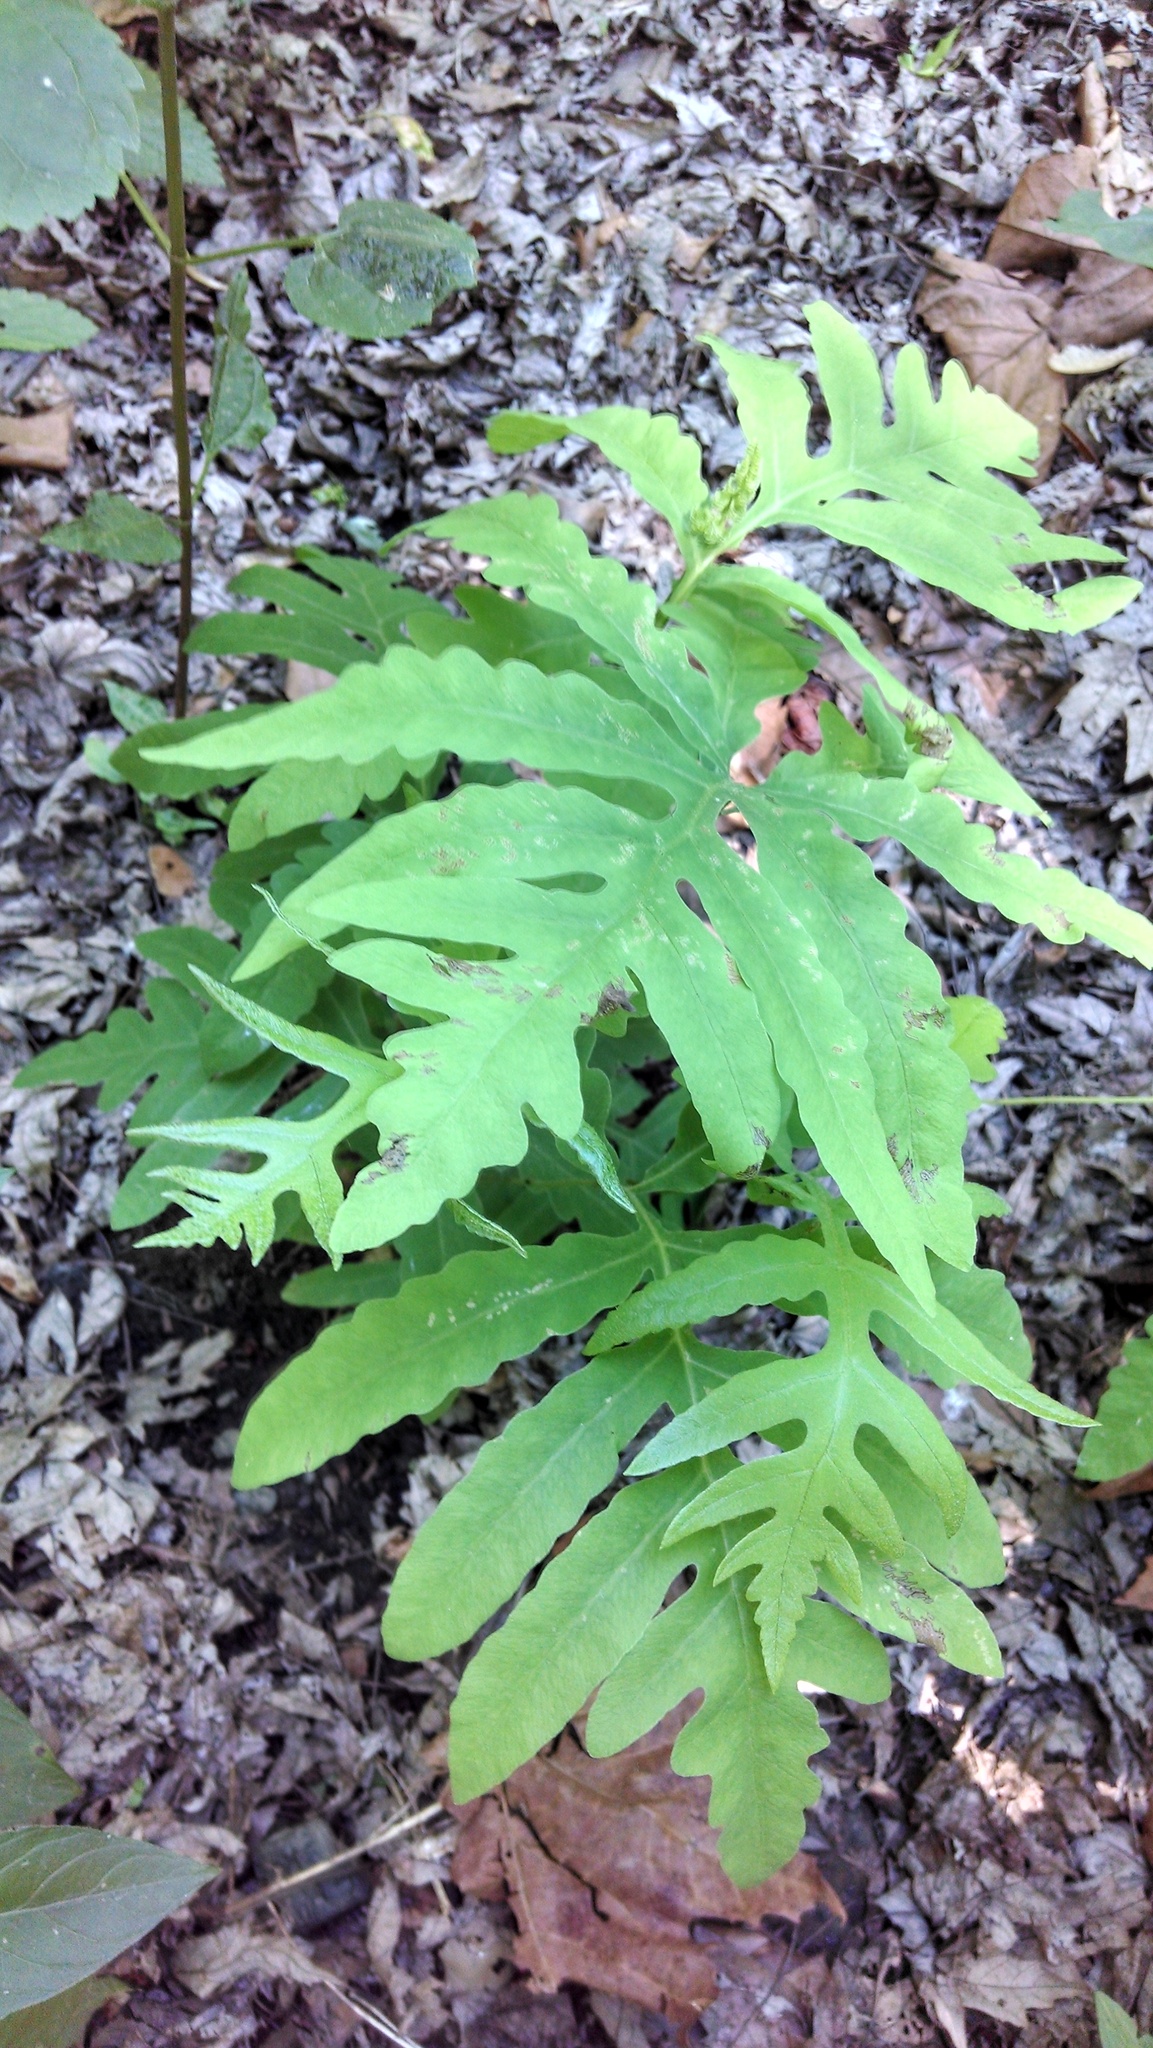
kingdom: Plantae
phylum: Tracheophyta
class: Polypodiopsida
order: Polypodiales
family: Onocleaceae
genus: Onoclea
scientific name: Onoclea sensibilis
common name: Sensitive fern
